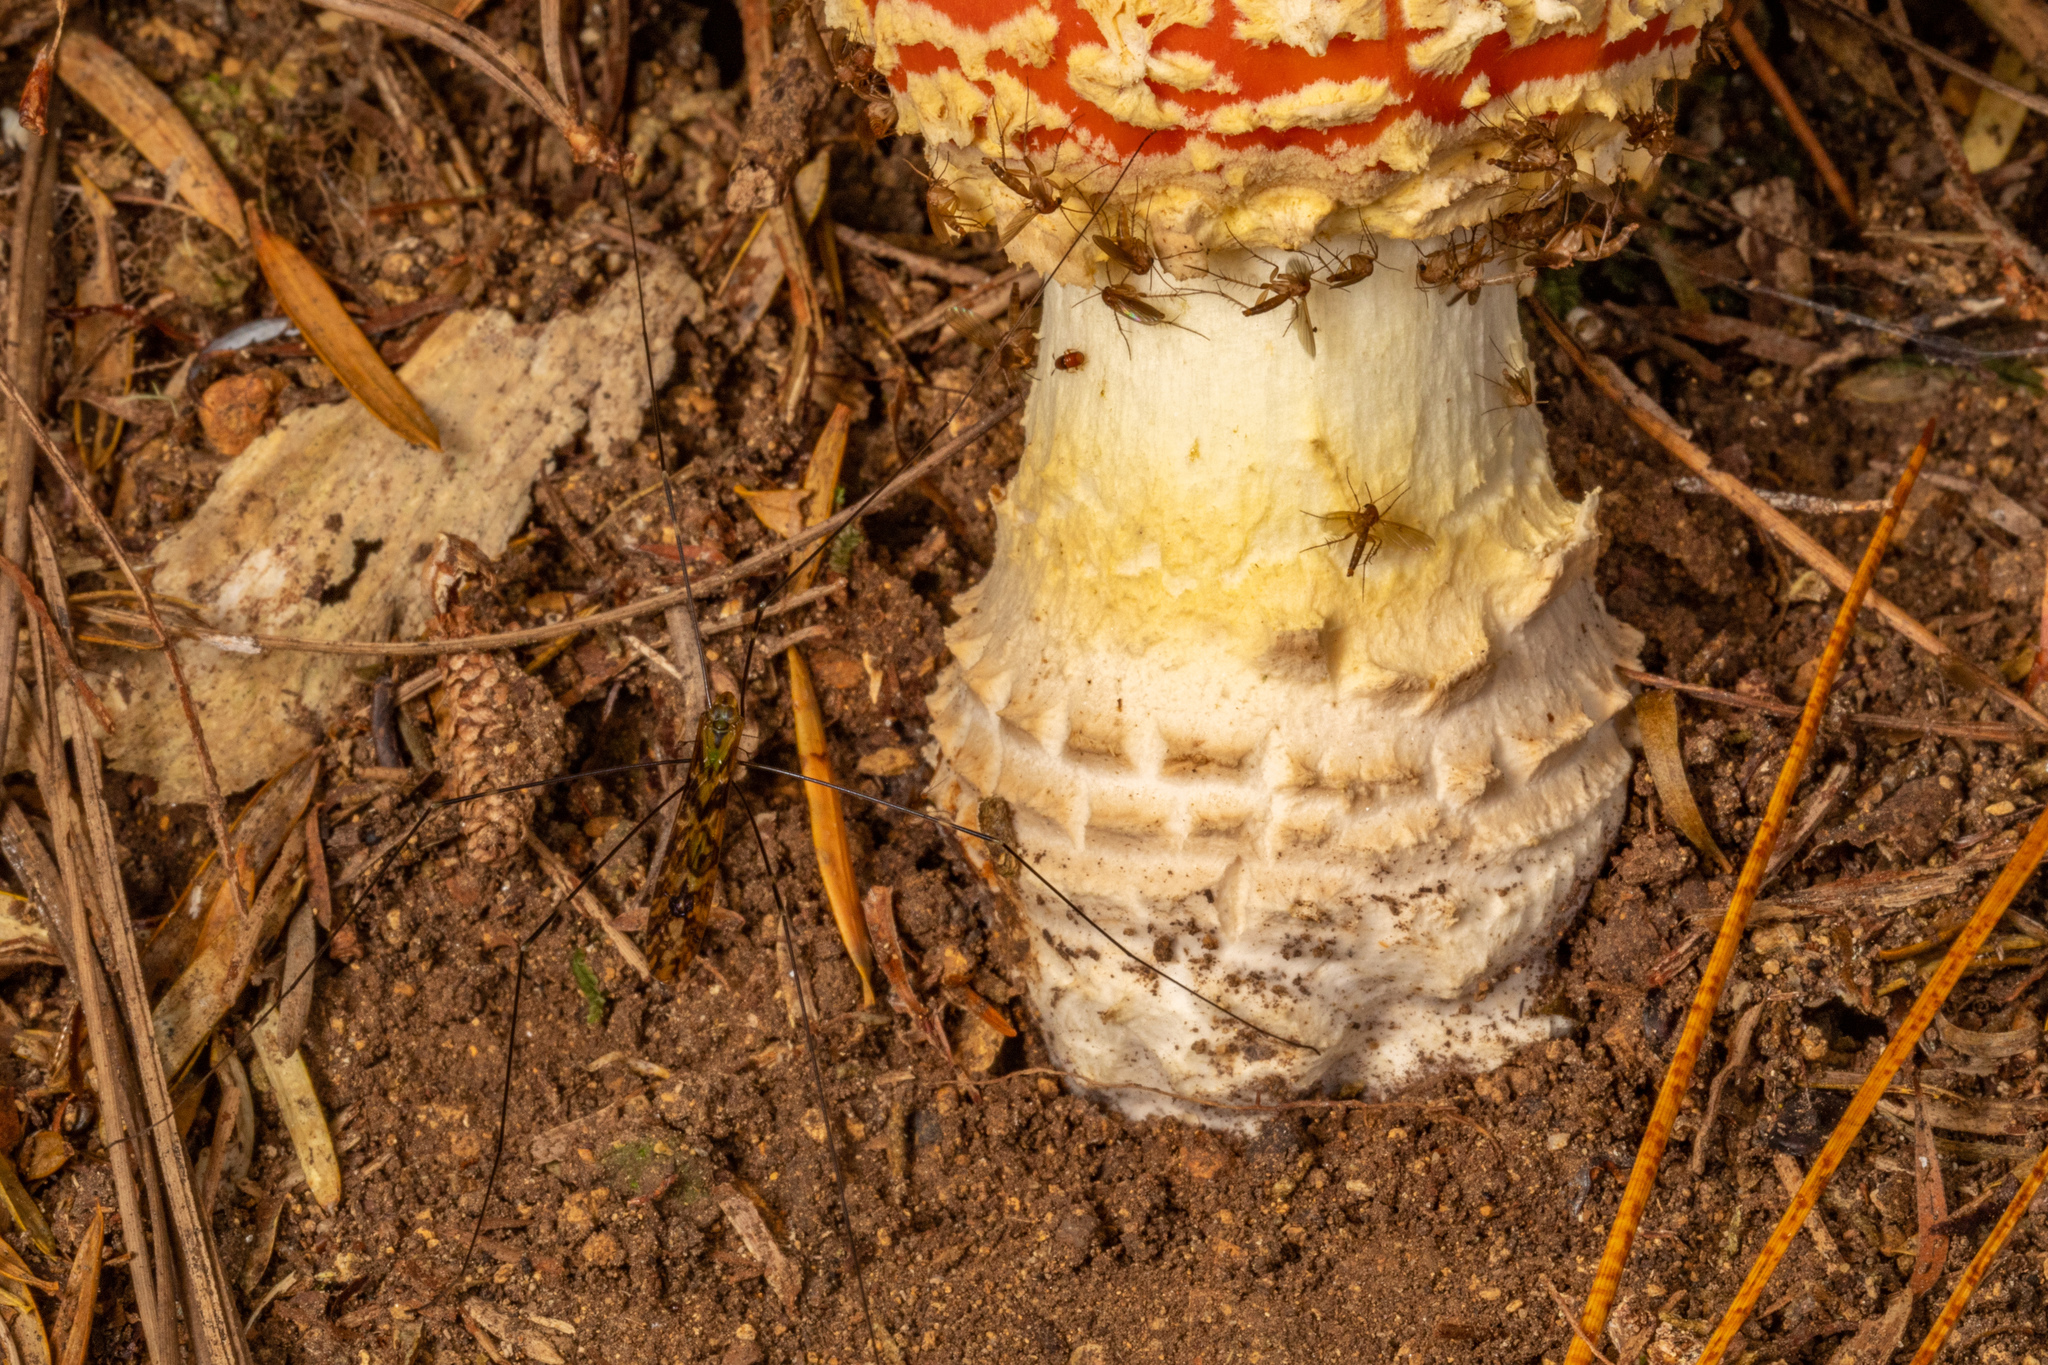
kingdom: Fungi
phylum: Basidiomycota
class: Agaricomycetes
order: Agaricales
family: Amanitaceae
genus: Amanita
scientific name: Amanita muscaria
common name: Fly agaric
